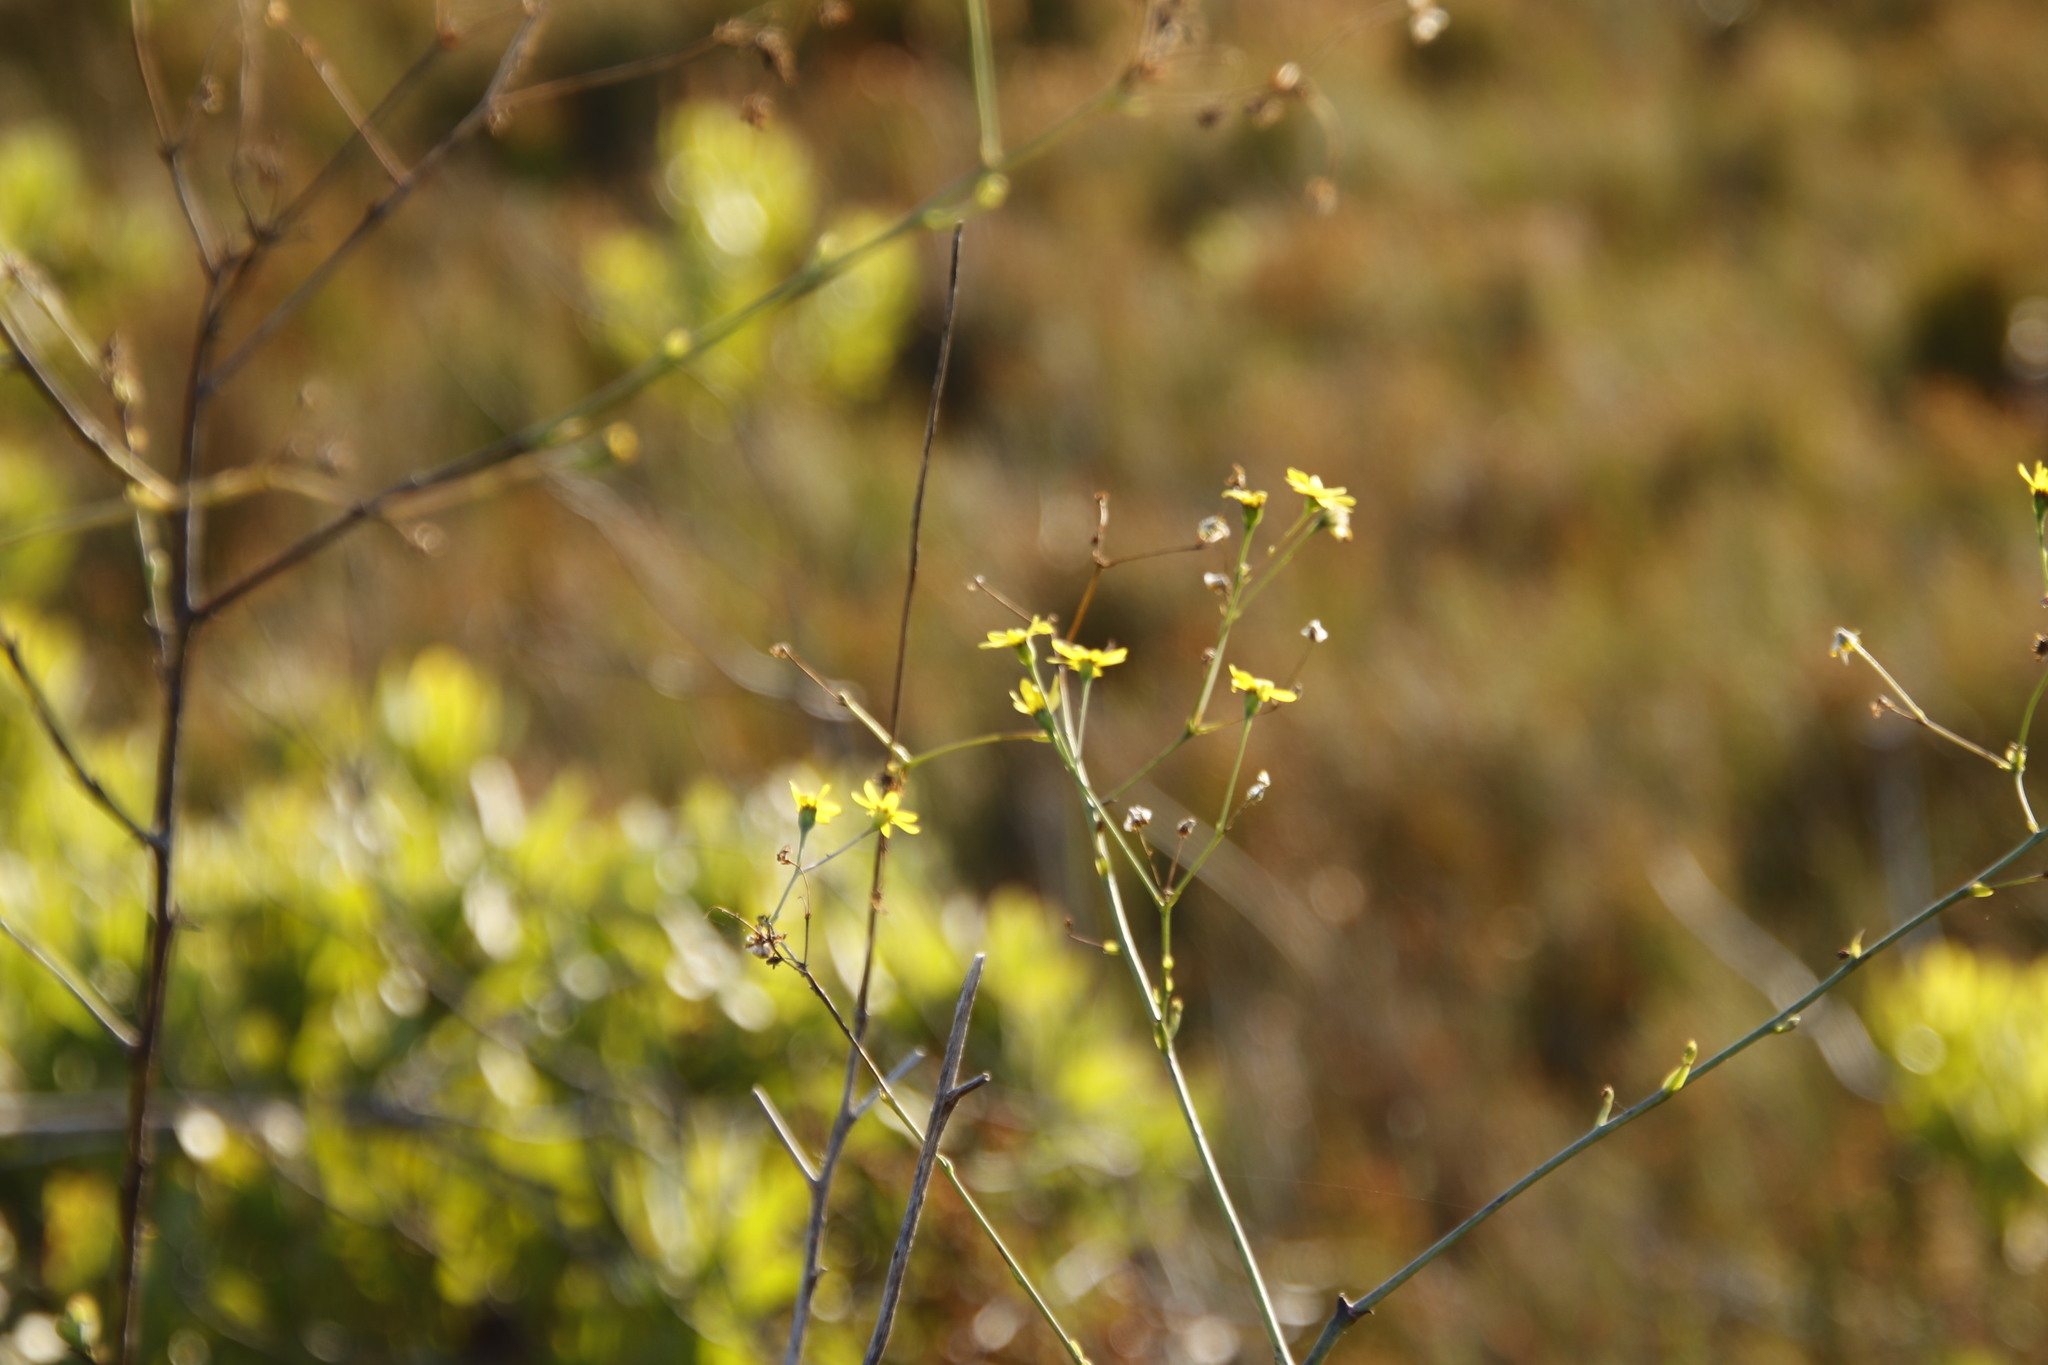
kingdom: Plantae
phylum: Tracheophyta
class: Magnoliopsida
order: Asterales
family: Asteraceae
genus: Othonna
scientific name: Othonna quinquedentata
